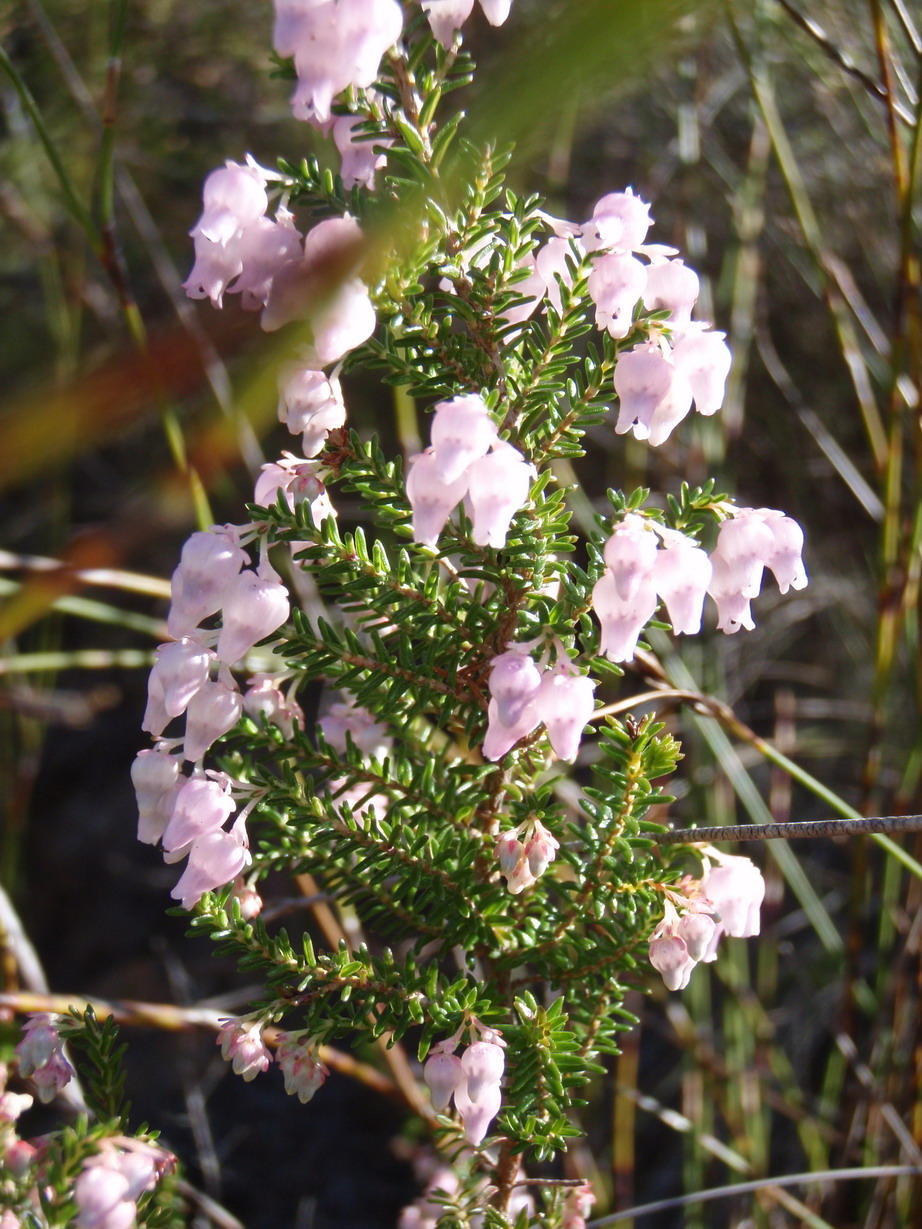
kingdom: Plantae
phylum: Tracheophyta
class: Magnoliopsida
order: Ericales
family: Ericaceae
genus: Erica
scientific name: Erica glomiflora
